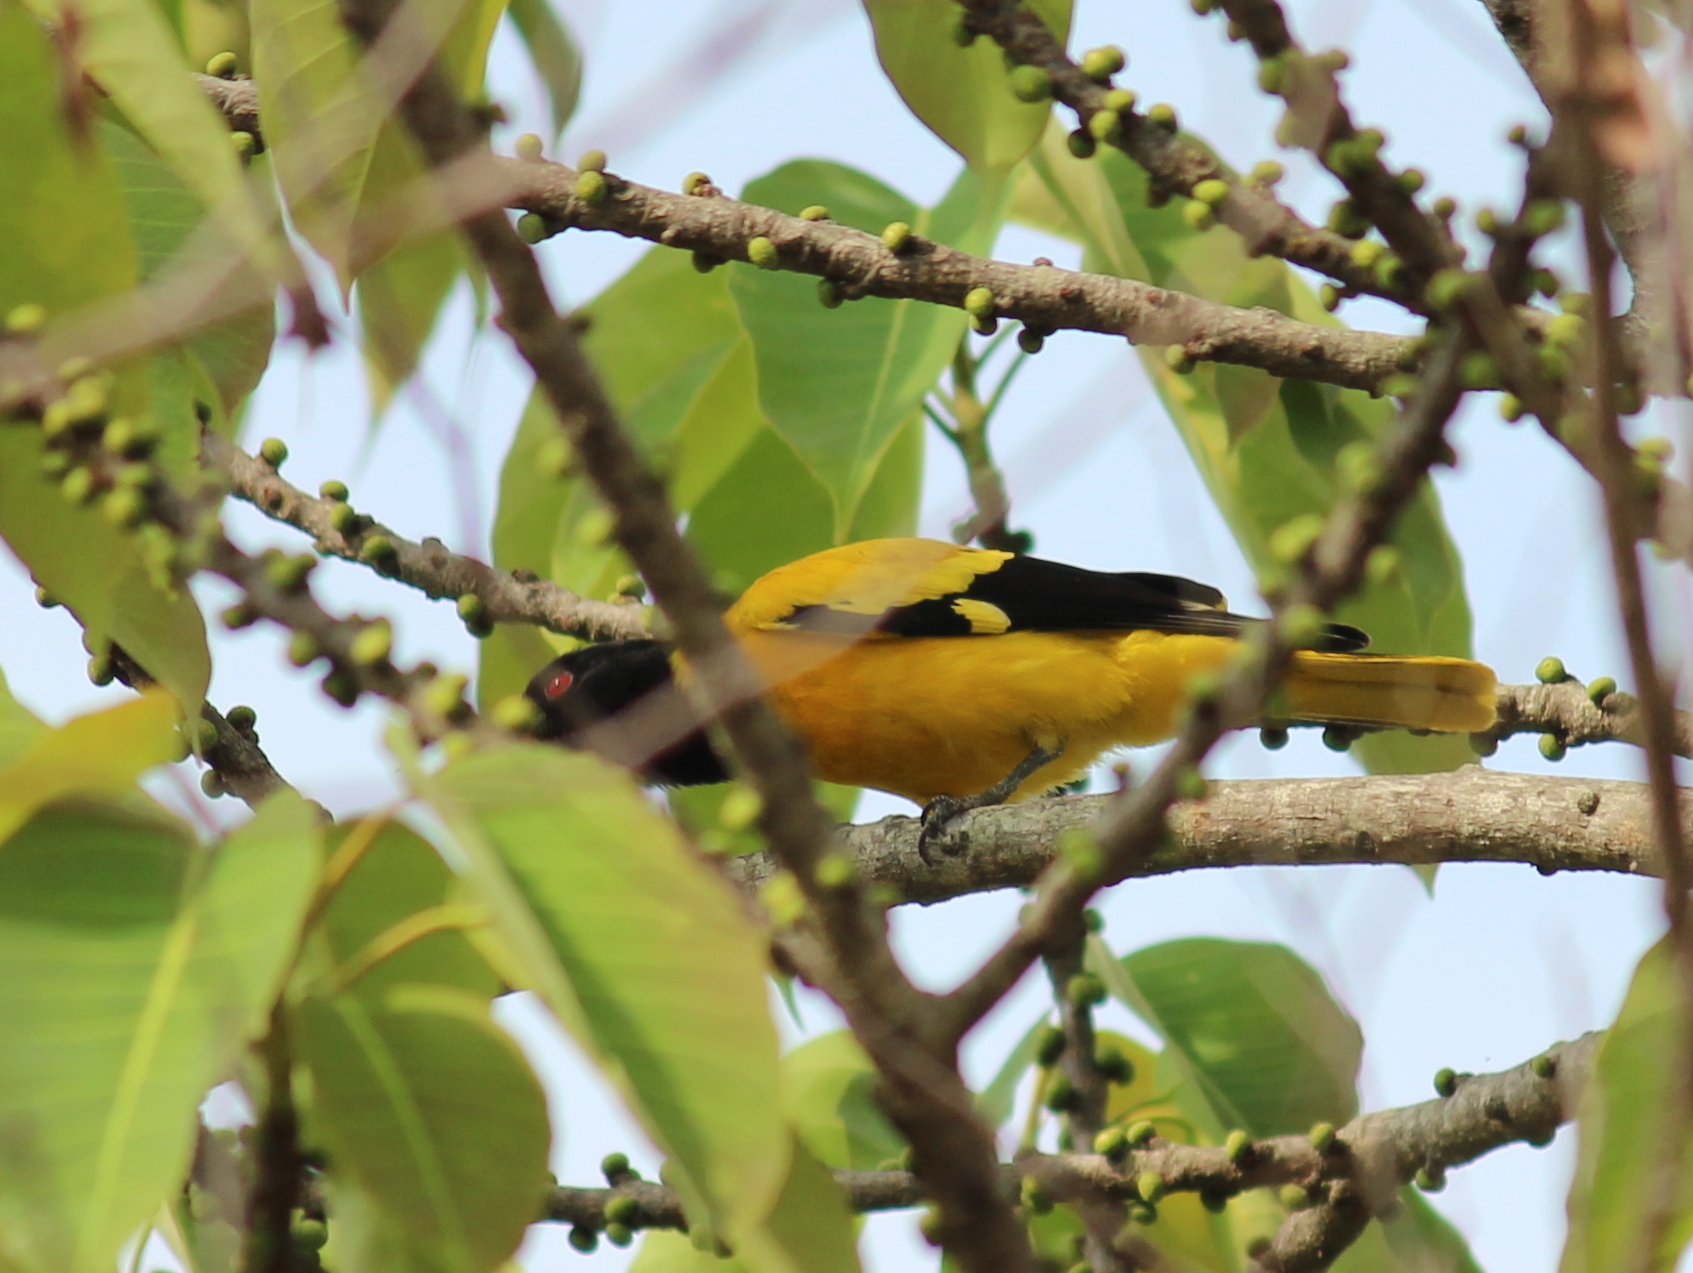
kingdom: Animalia
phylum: Chordata
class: Aves
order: Passeriformes
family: Oriolidae
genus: Oriolus
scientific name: Oriolus xanthornus
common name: Black-hooded oriole
